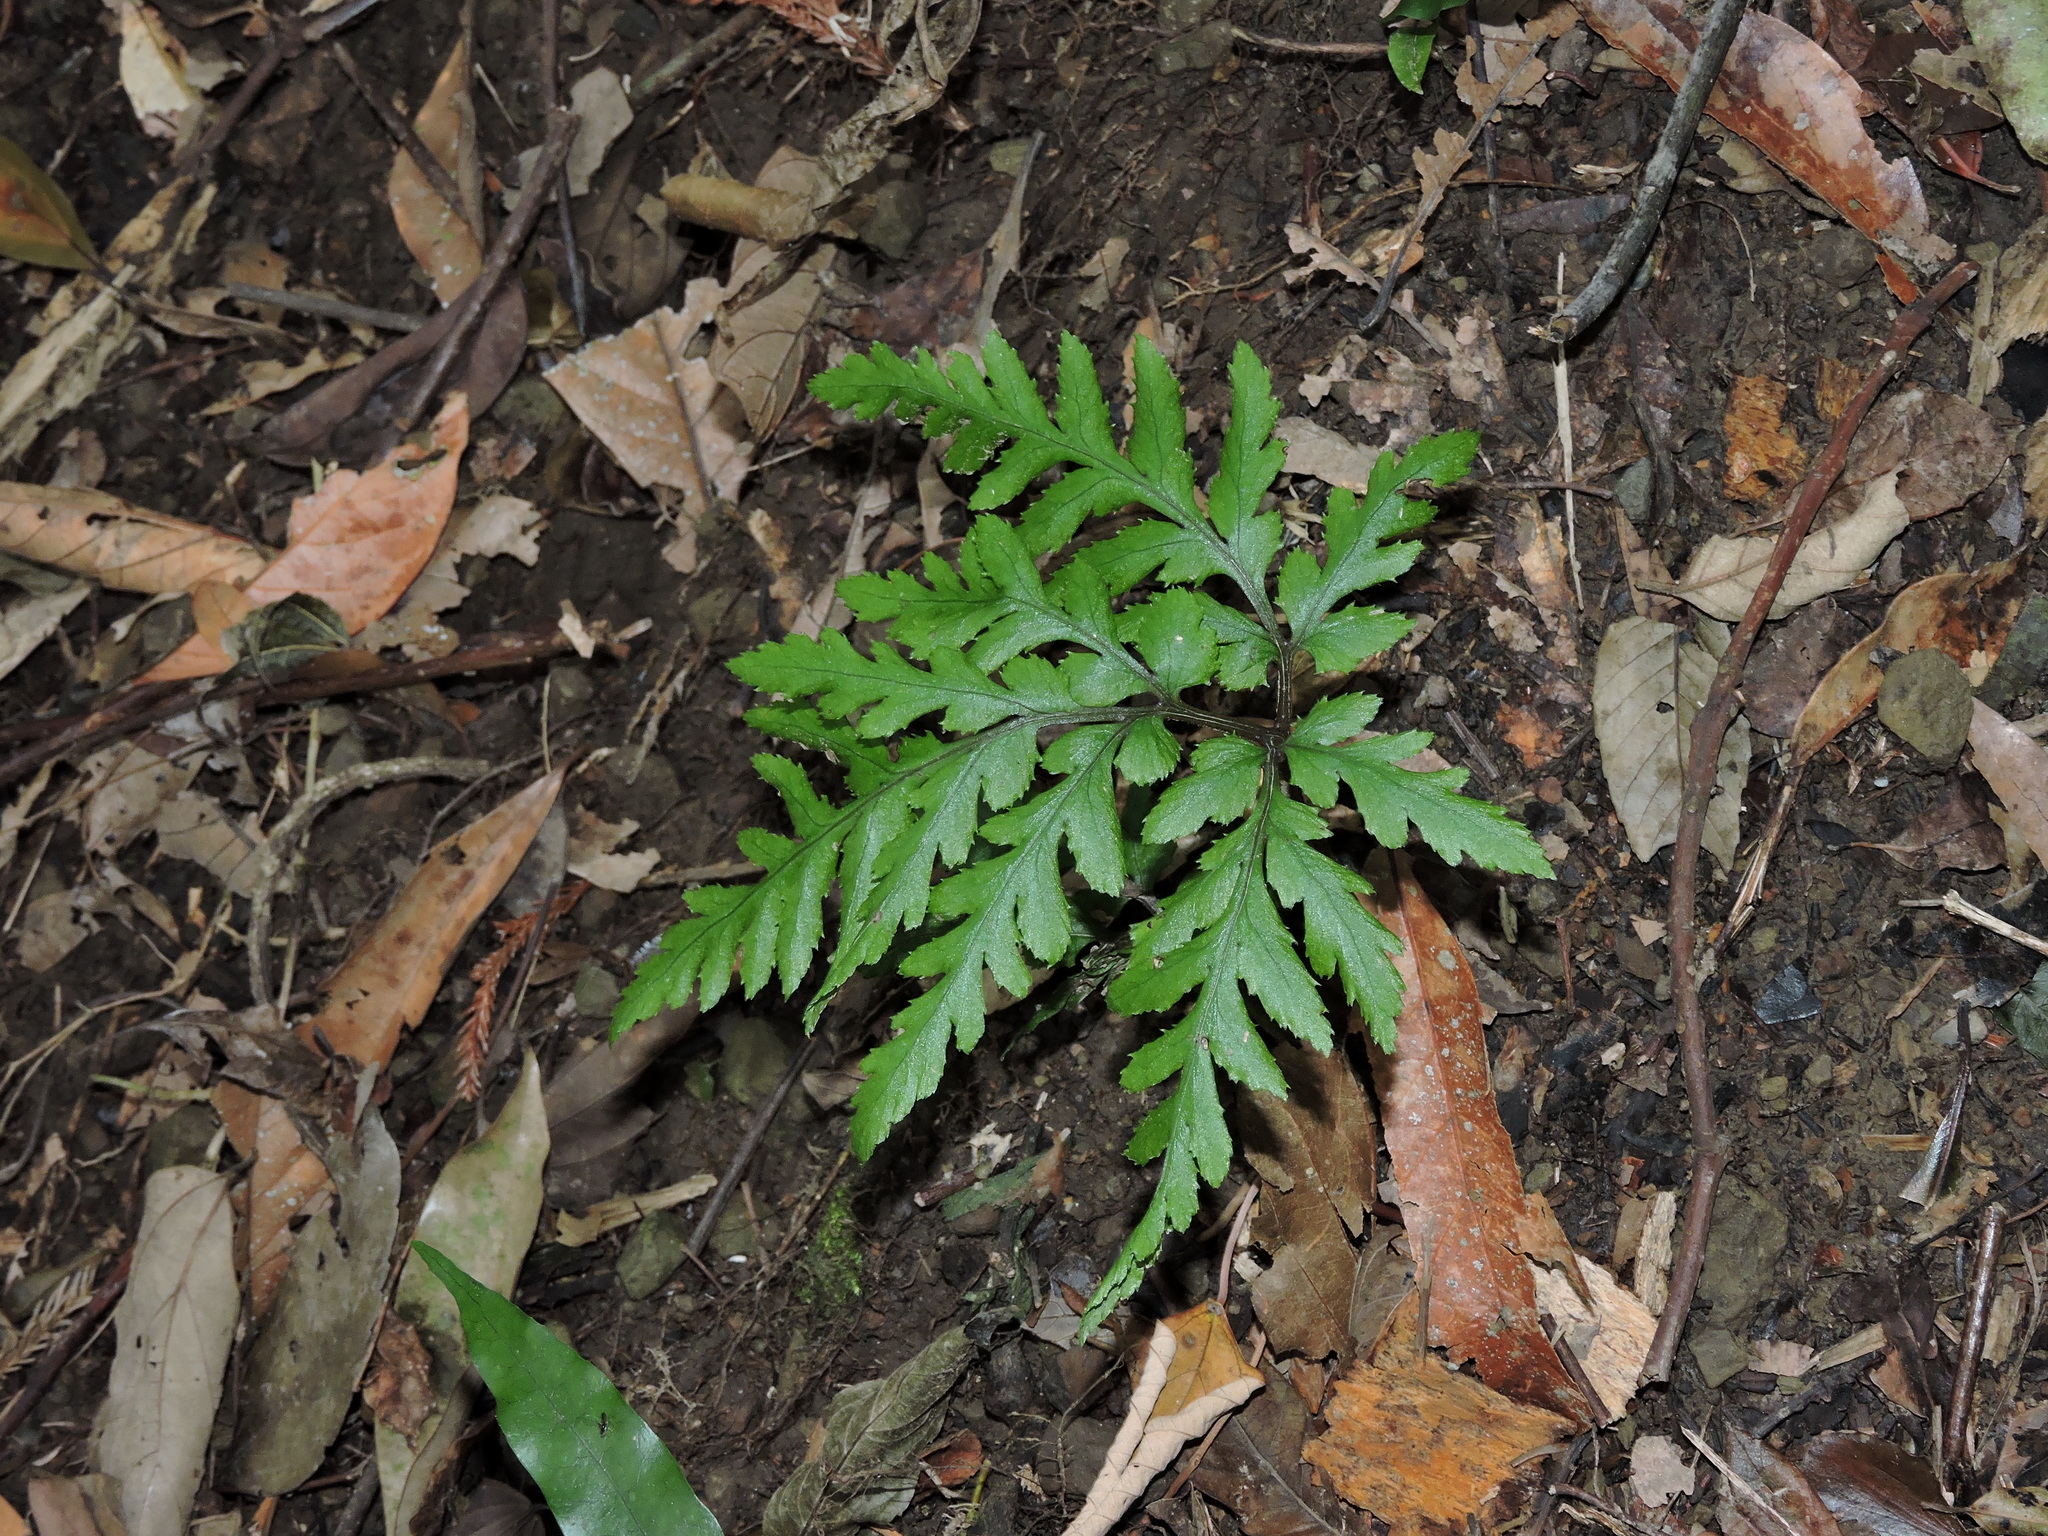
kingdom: Plantae
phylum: Tracheophyta
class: Polypodiopsida
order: Ophioglossales
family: Ophioglossaceae
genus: Sceptridium
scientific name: Sceptridium formosanum
